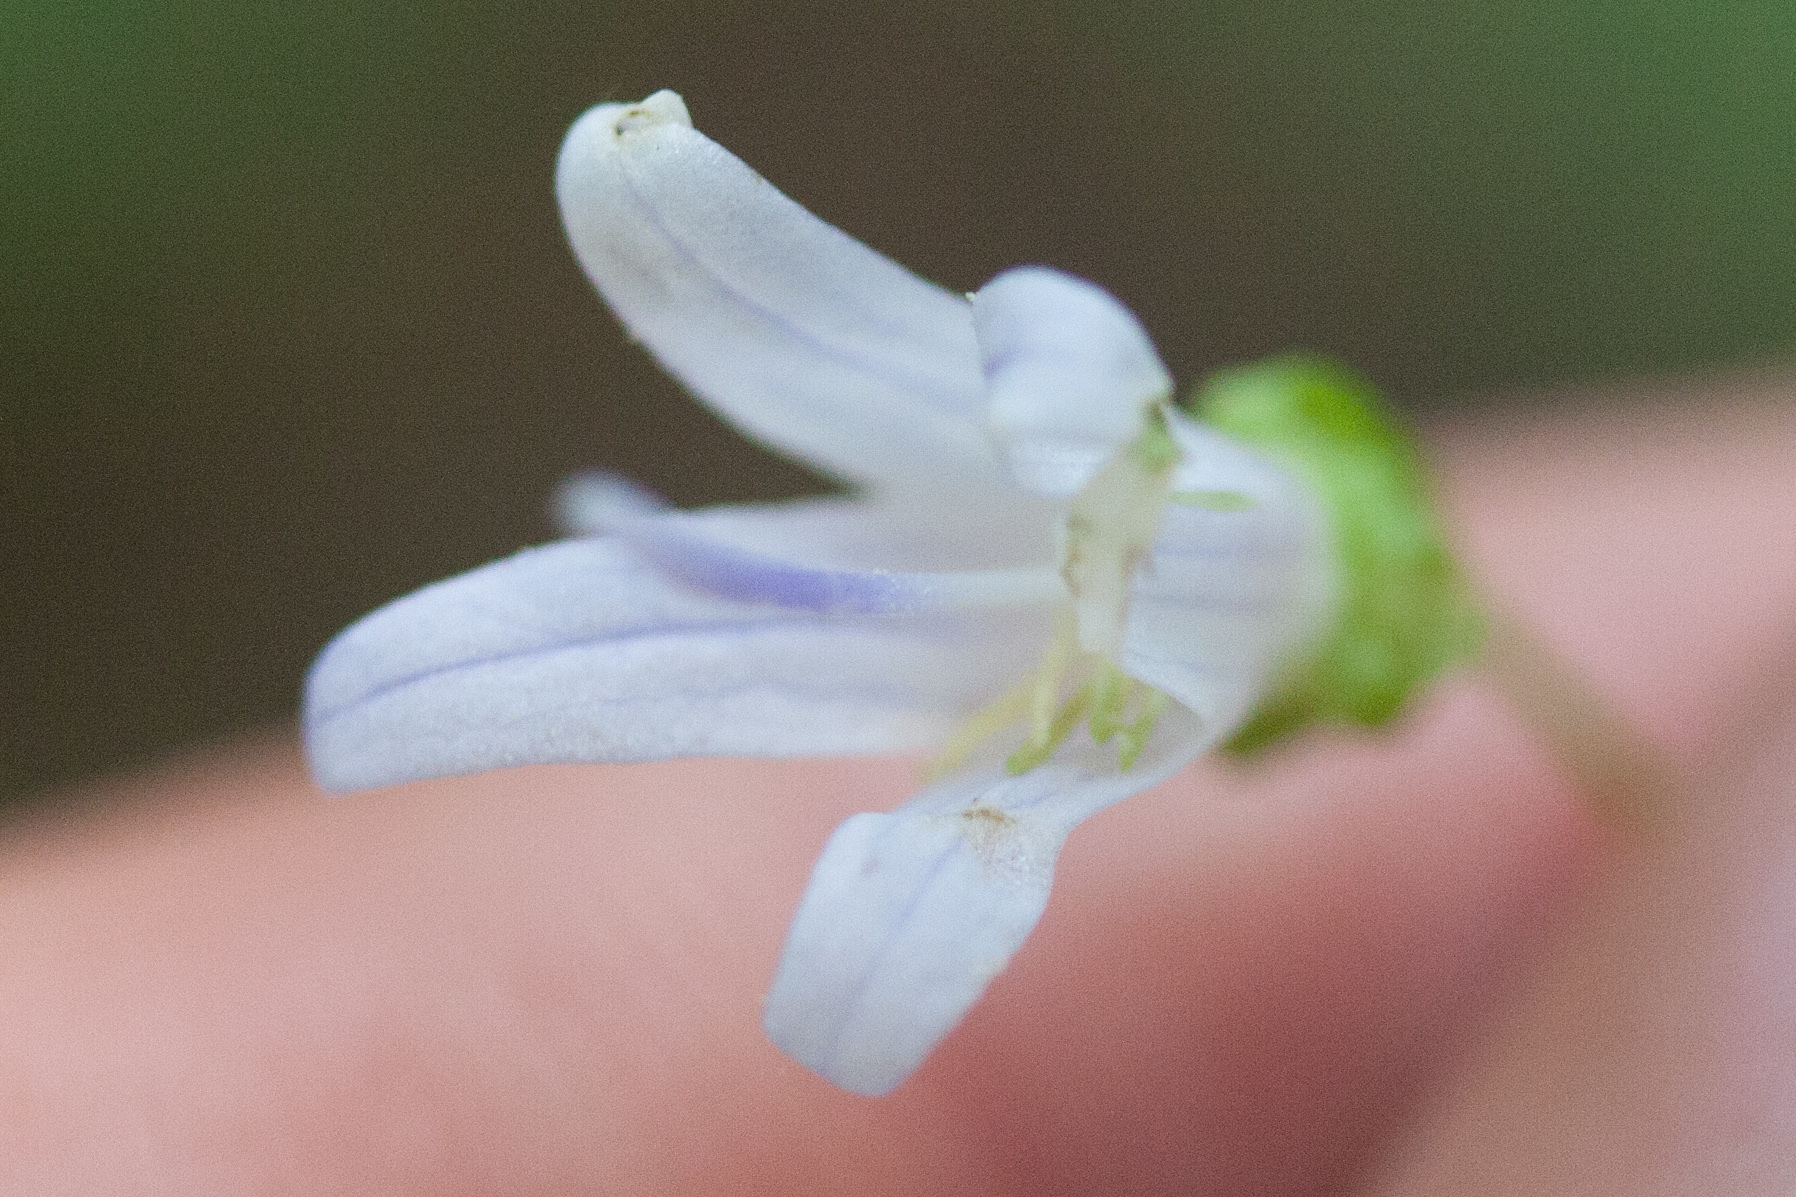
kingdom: Plantae
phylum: Tracheophyta
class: Magnoliopsida
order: Asterales
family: Campanulaceae
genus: Smithiastrum
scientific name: Smithiastrum prenanthoides
